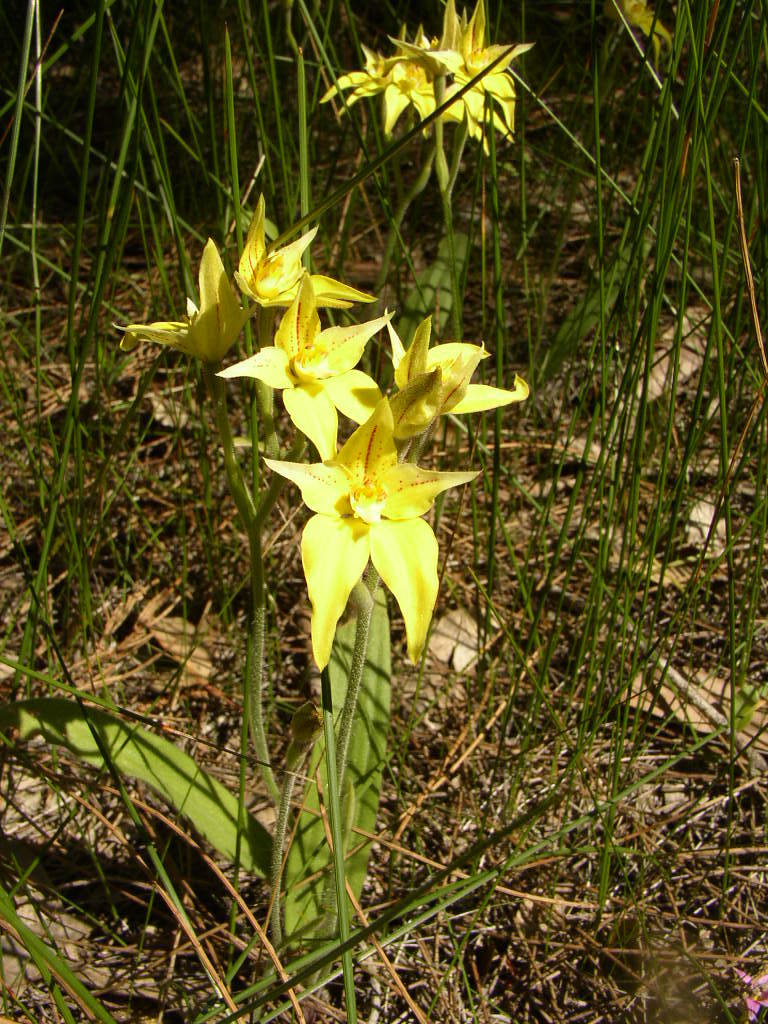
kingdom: Plantae
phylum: Tracheophyta
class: Liliopsida
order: Asparagales
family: Orchidaceae
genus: Caladenia
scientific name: Caladenia flava
